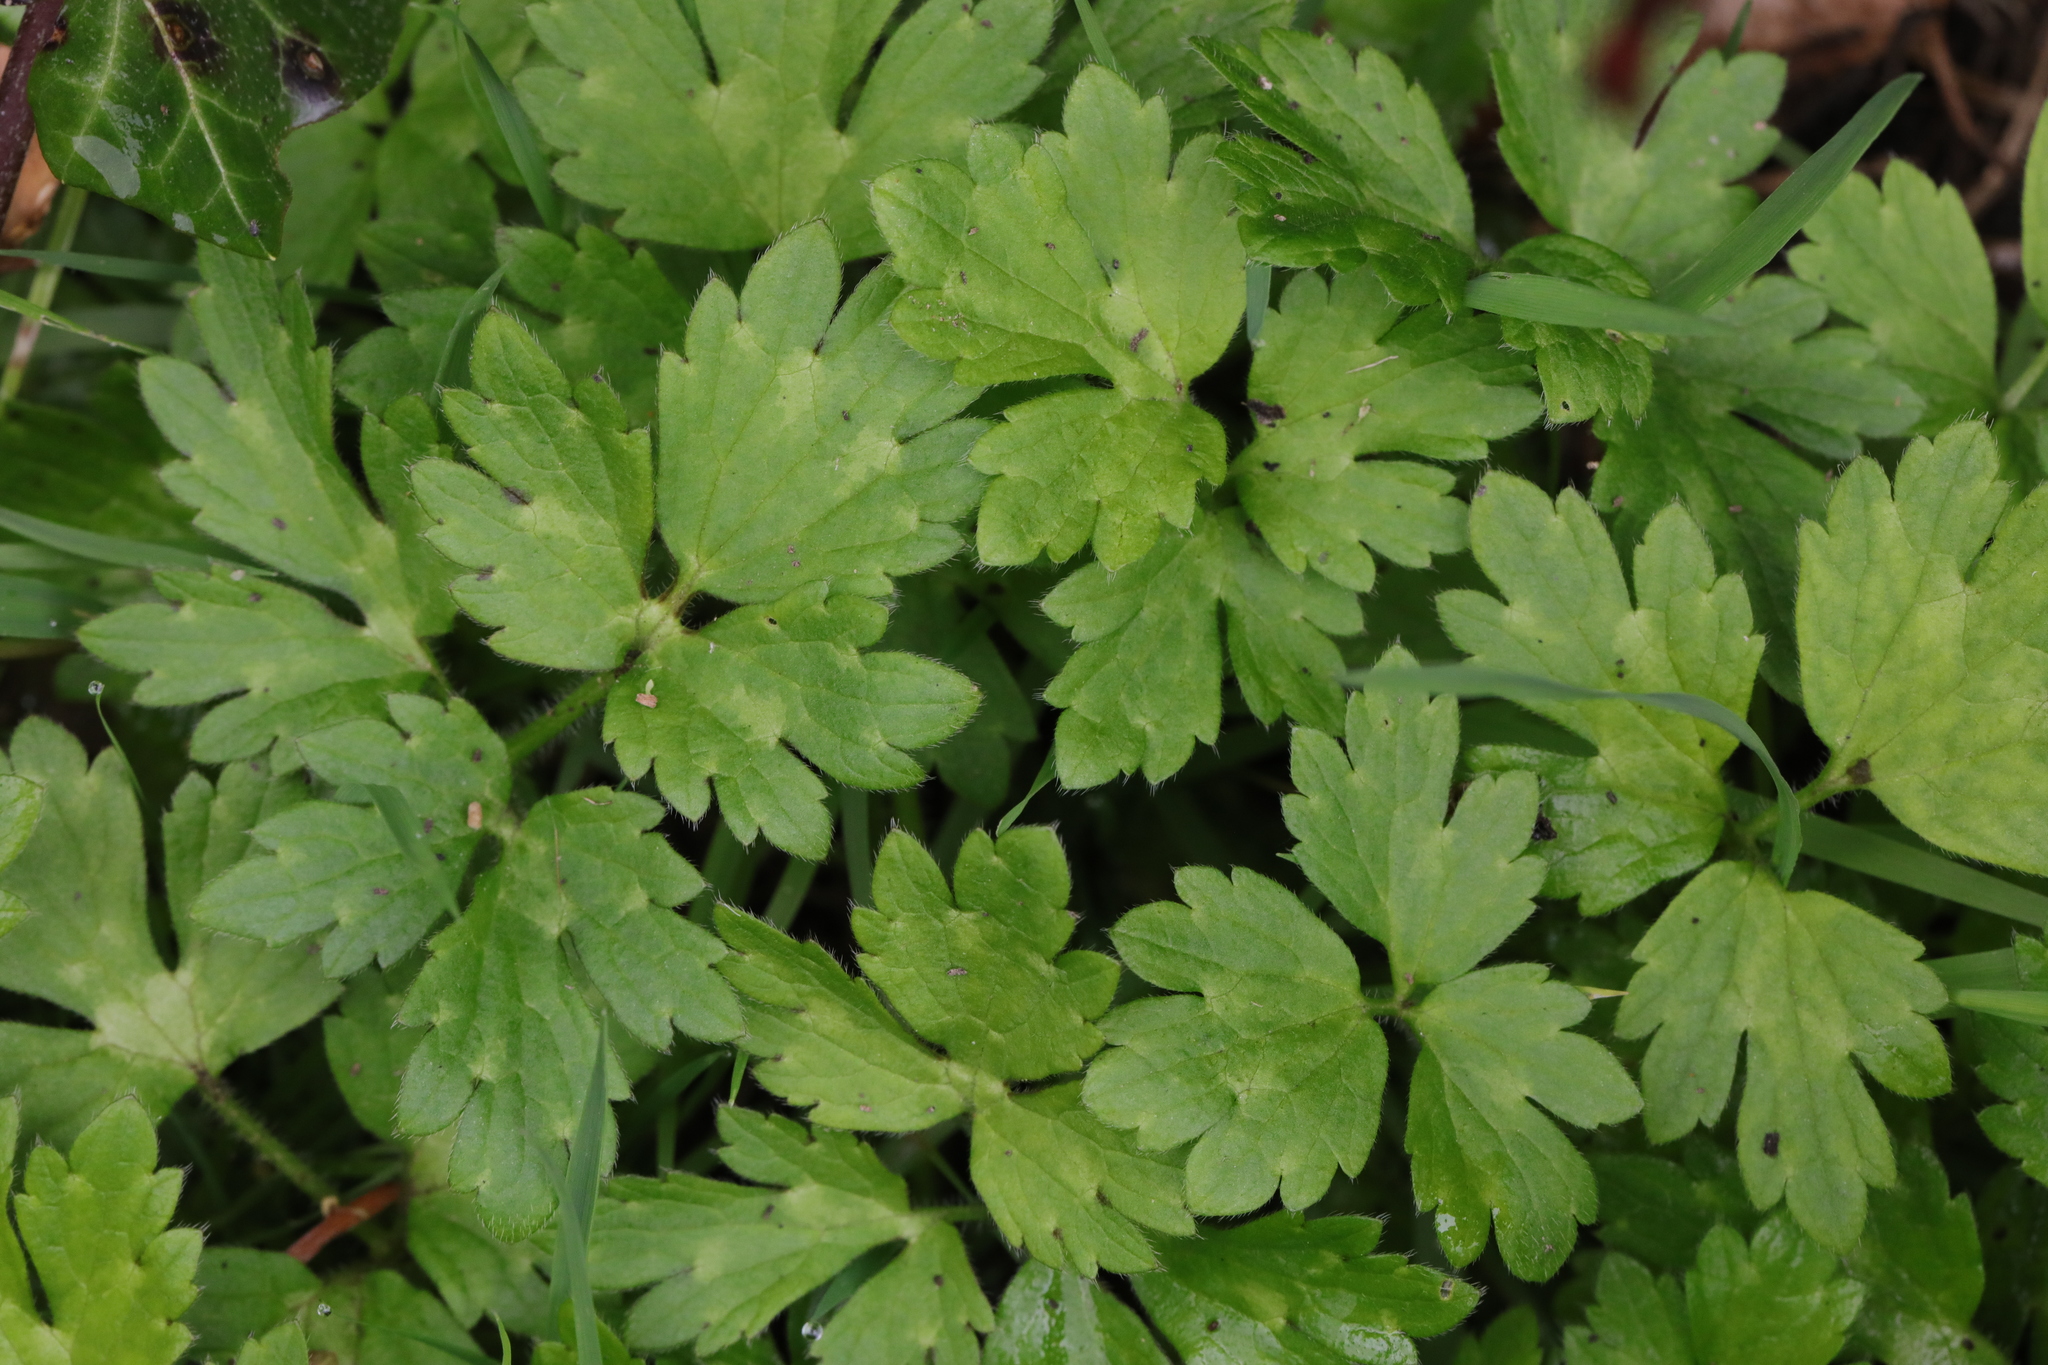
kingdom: Plantae
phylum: Tracheophyta
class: Magnoliopsida
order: Ranunculales
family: Ranunculaceae
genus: Ranunculus
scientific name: Ranunculus repens
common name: Creeping buttercup
